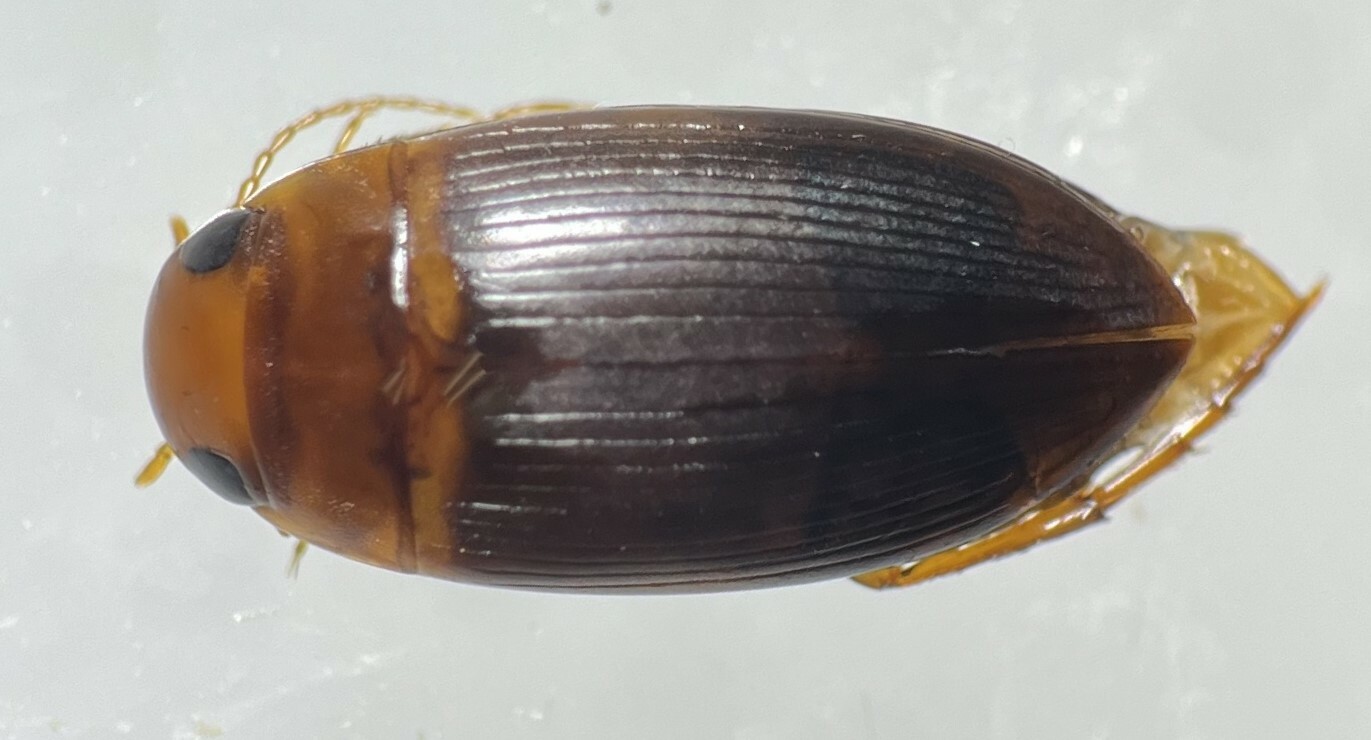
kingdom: Animalia
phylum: Arthropoda
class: Insecta
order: Coleoptera
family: Dytiscidae
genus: Copelatus
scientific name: Copelatus caelatipennis
